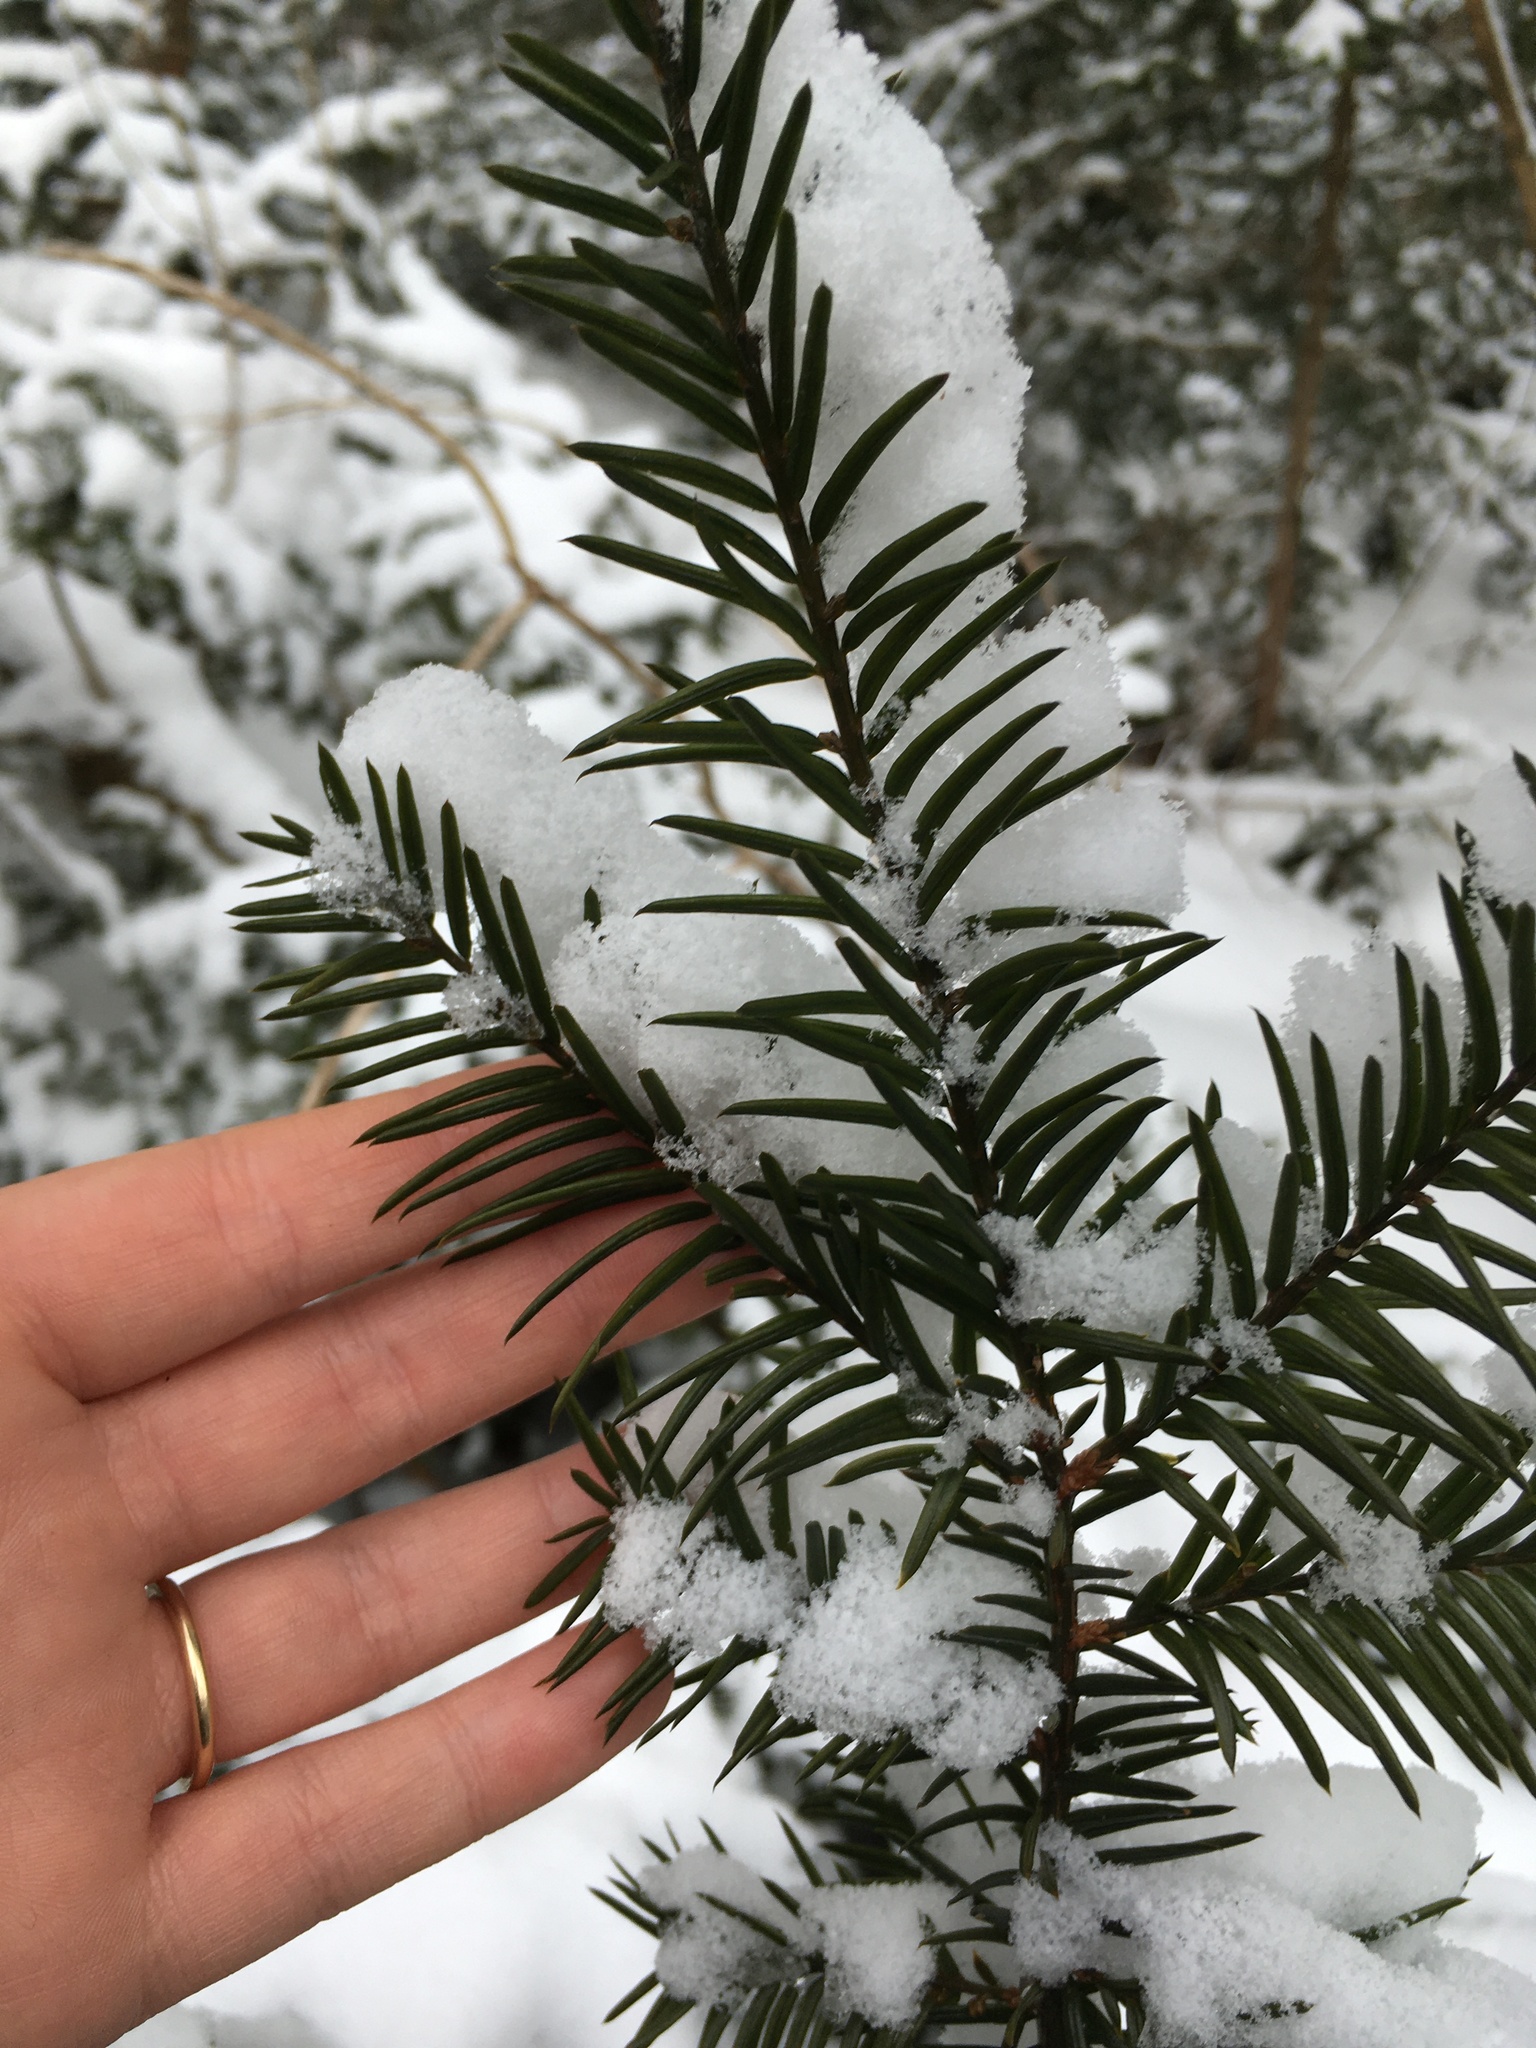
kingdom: Plantae
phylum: Tracheophyta
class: Pinopsida
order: Pinales
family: Taxaceae
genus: Taxus
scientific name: Taxus canadensis
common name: American yew
